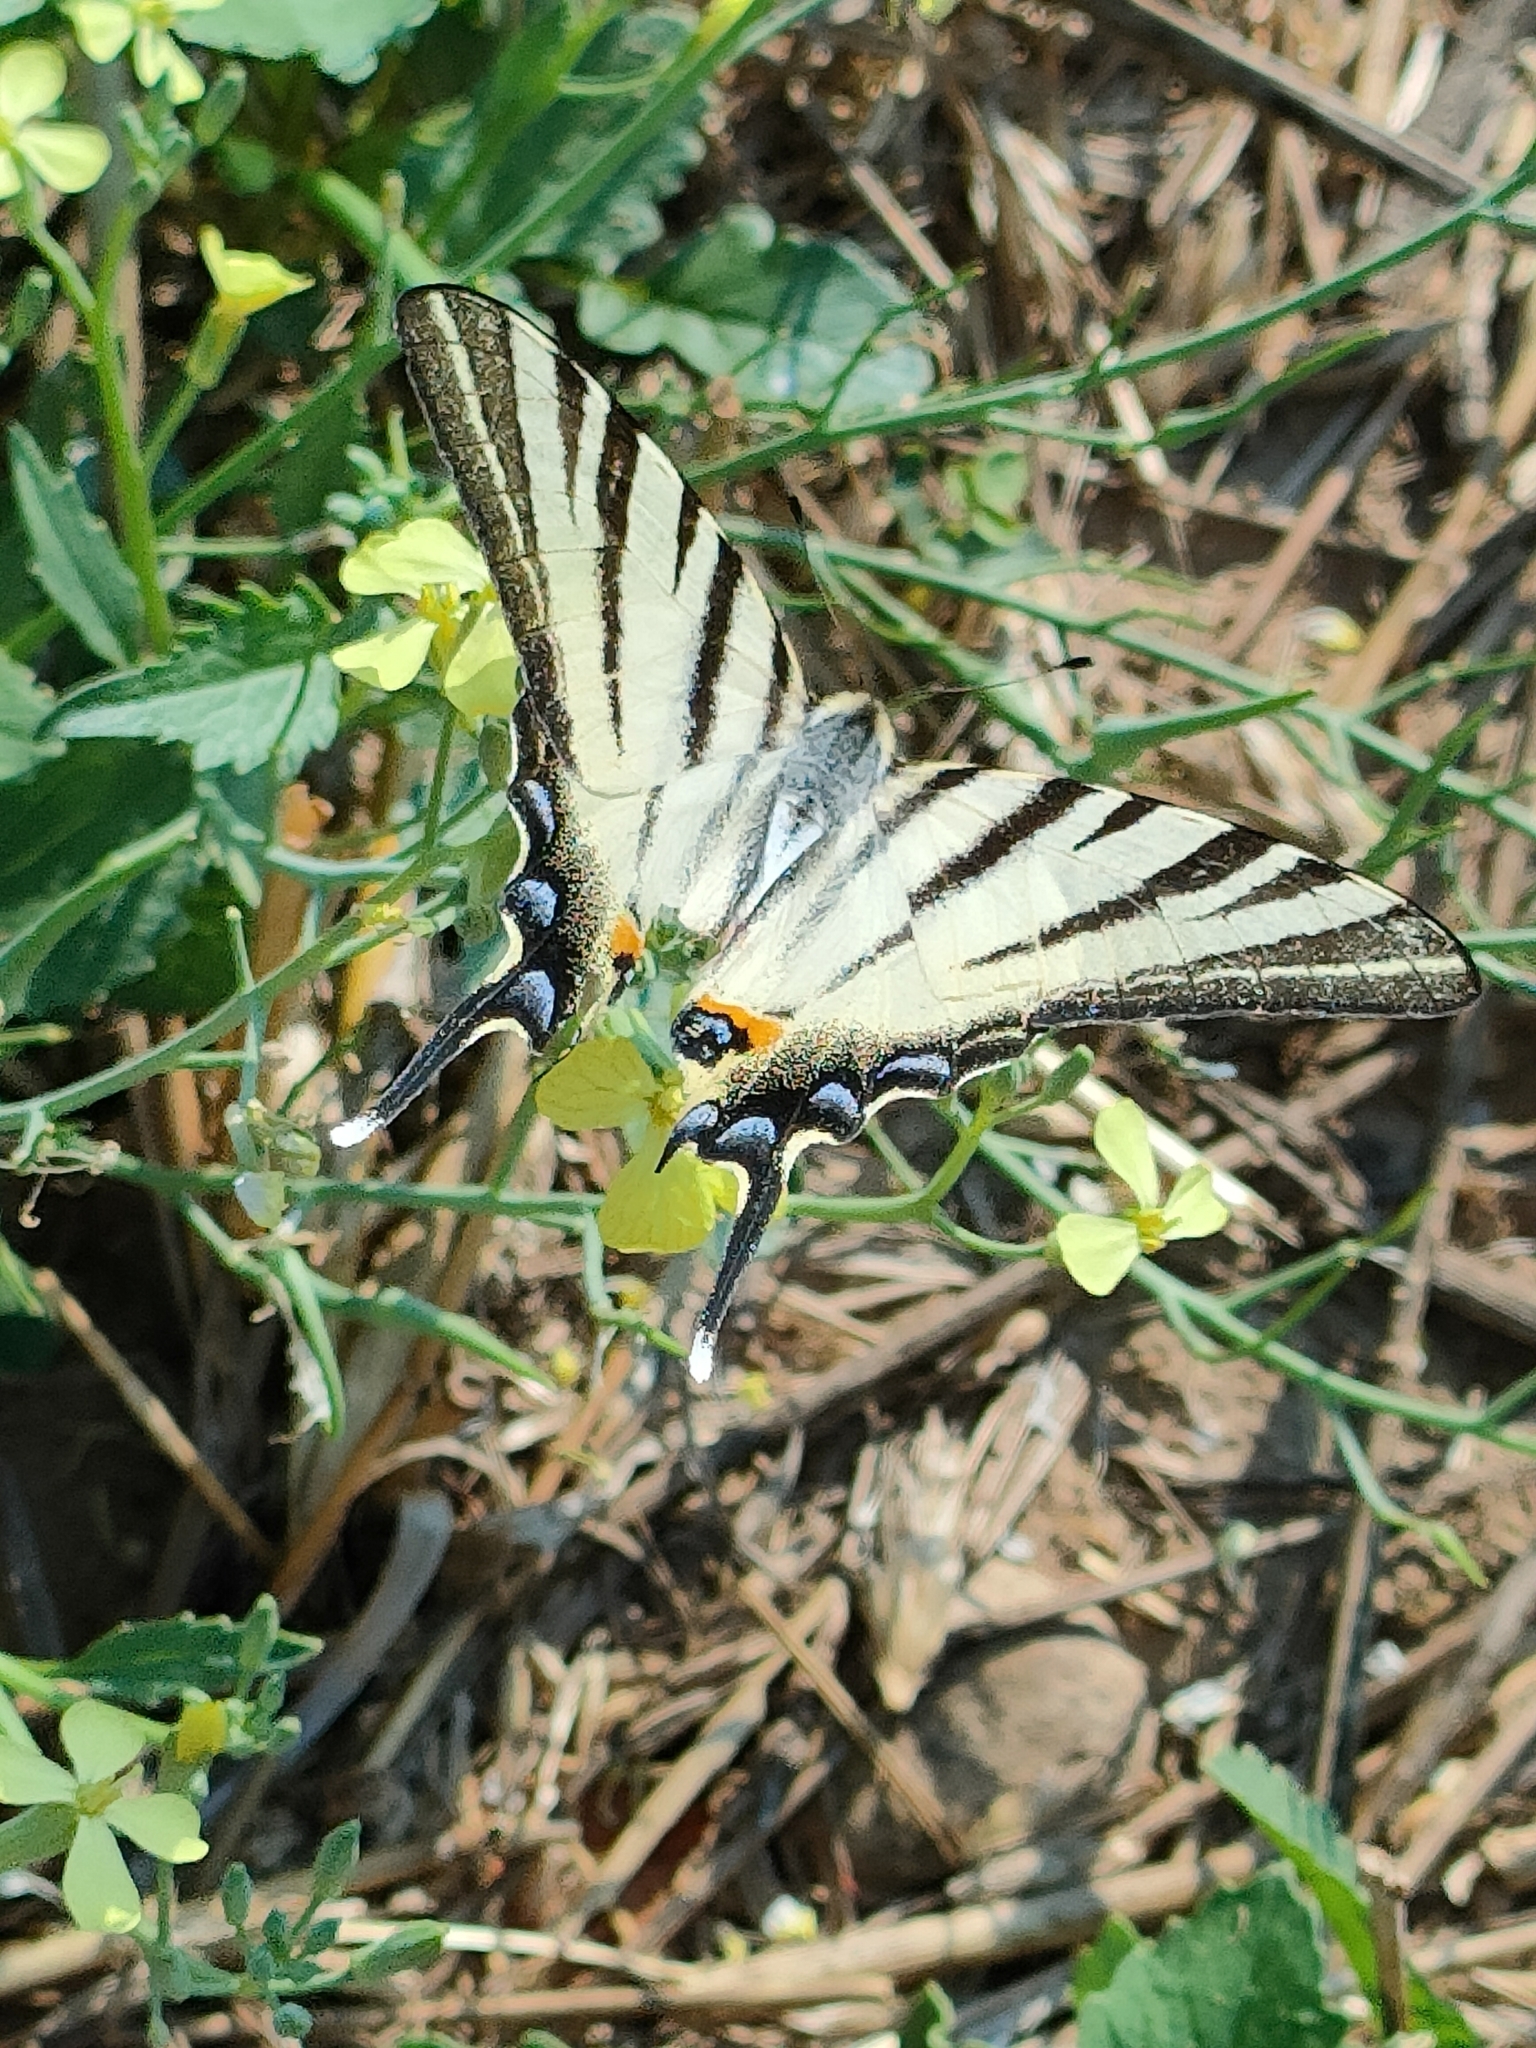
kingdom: Animalia
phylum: Arthropoda
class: Insecta
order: Lepidoptera
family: Papilionidae
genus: Iphiclides
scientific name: Iphiclides podalirius
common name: Scarce swallowtail
